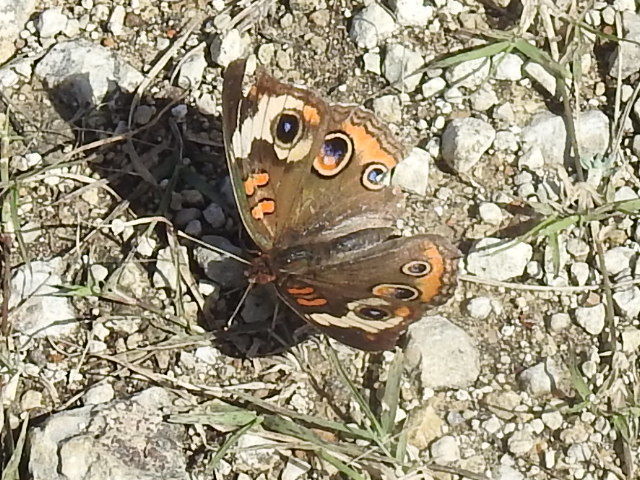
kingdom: Animalia
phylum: Arthropoda
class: Insecta
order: Lepidoptera
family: Nymphalidae
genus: Junonia
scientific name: Junonia coenia
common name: Common buckeye
